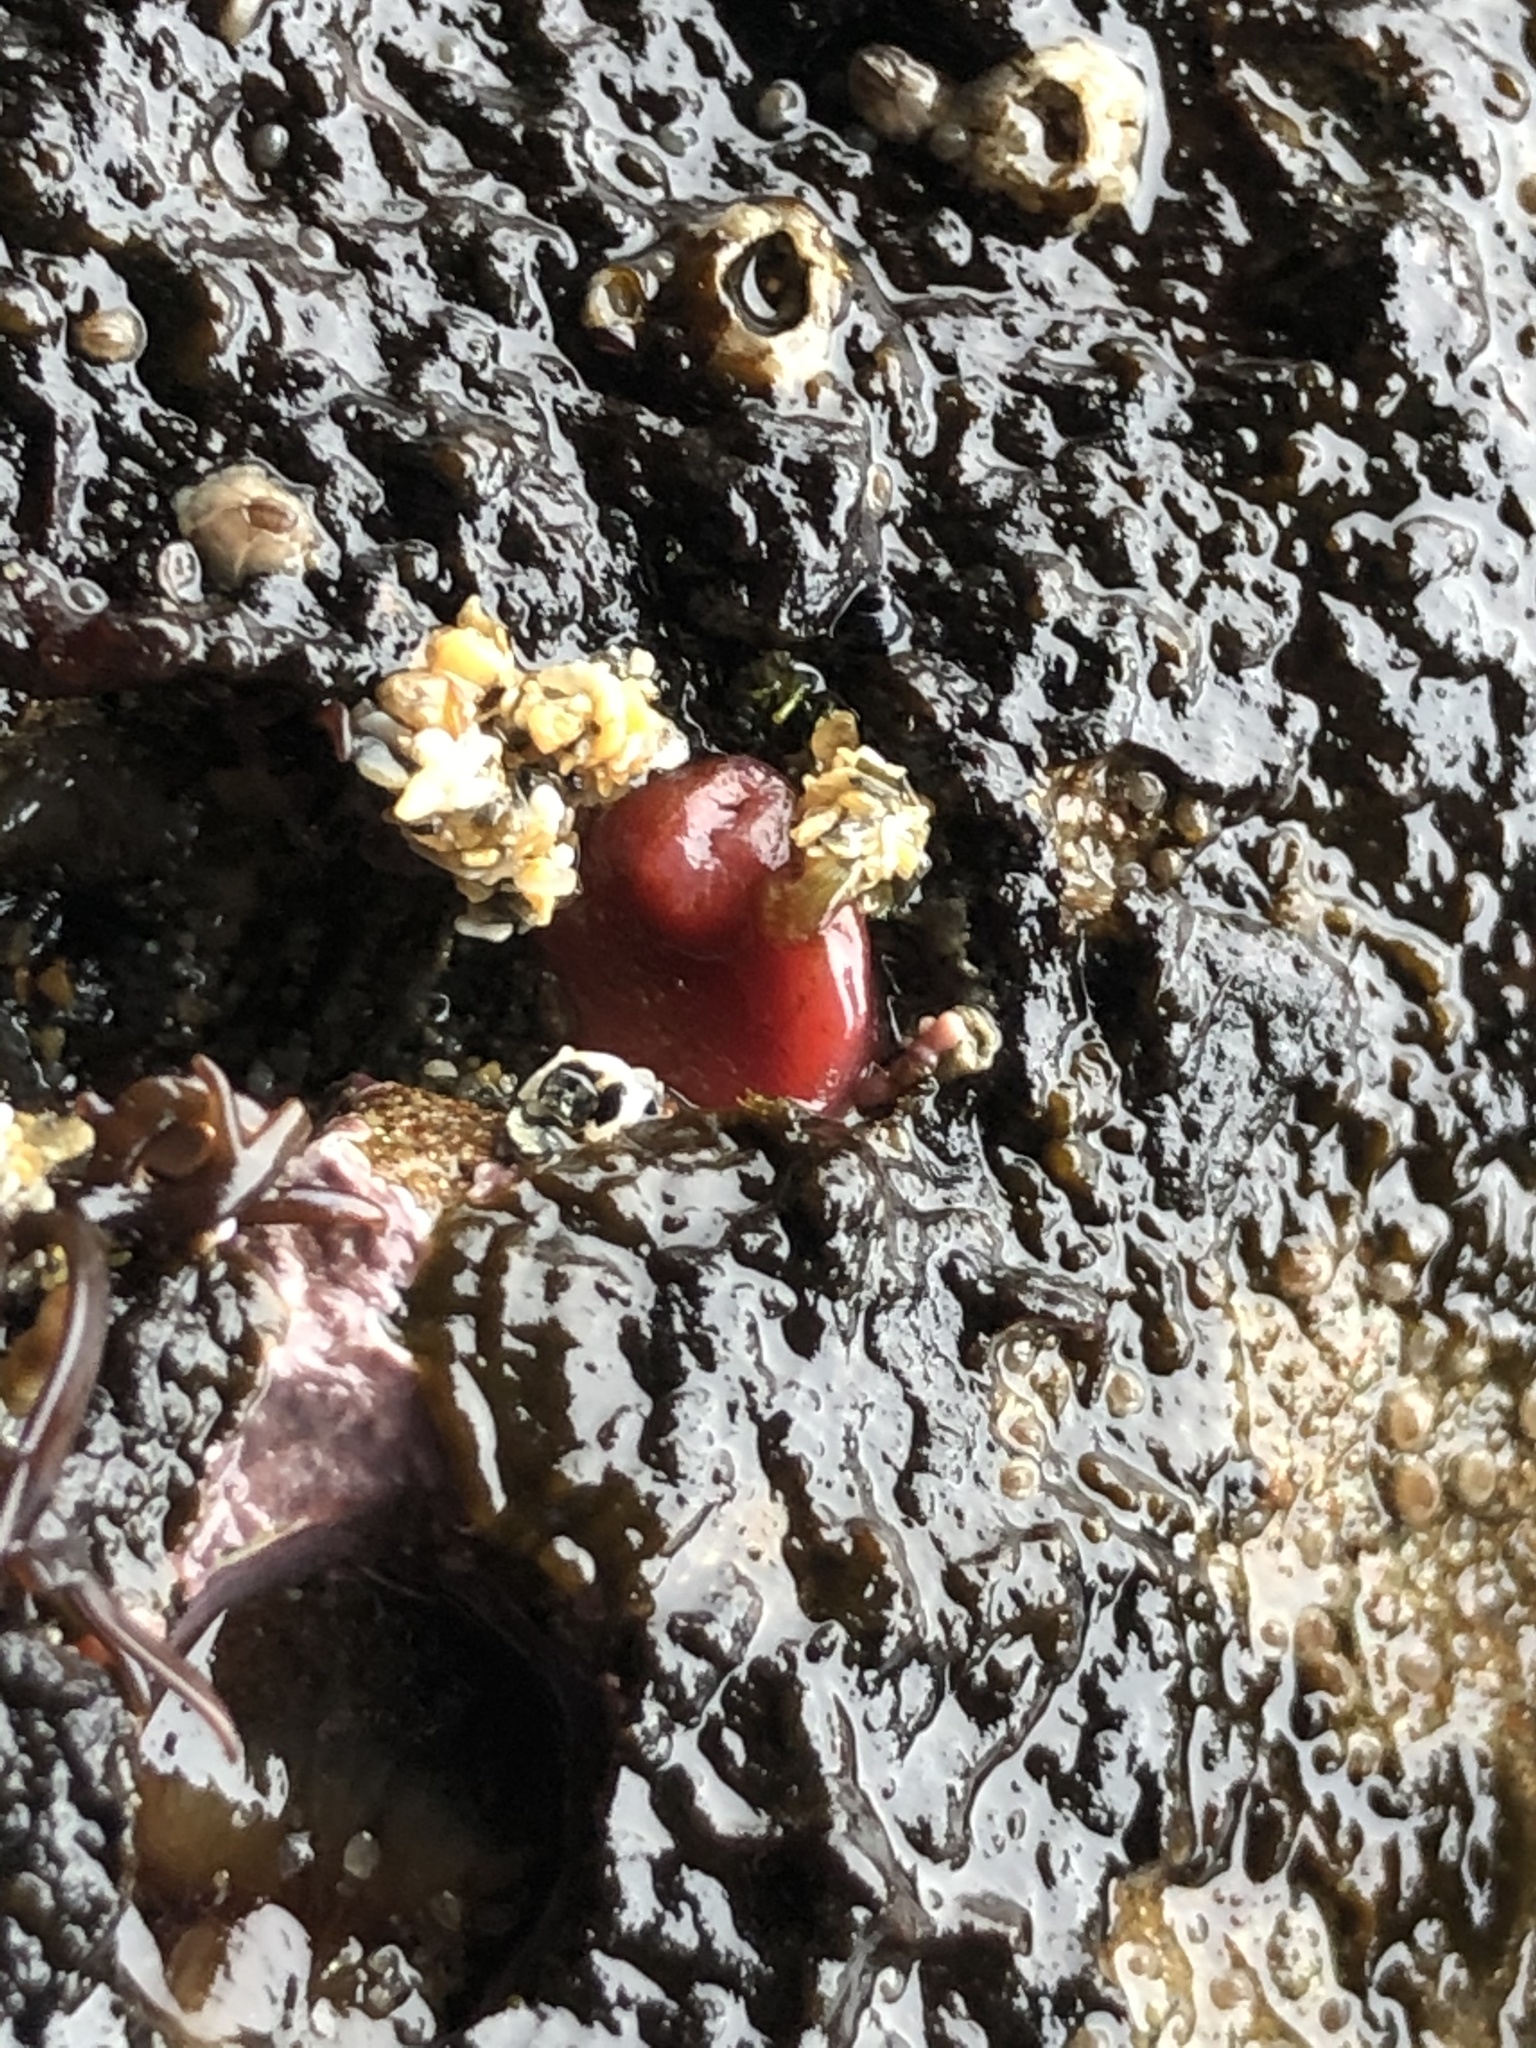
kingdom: Animalia
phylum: Mollusca
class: Bivalvia
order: Adapedonta
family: Hiatellidae
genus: Hiatella
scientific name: Hiatella arctica
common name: Arctic hiatella
